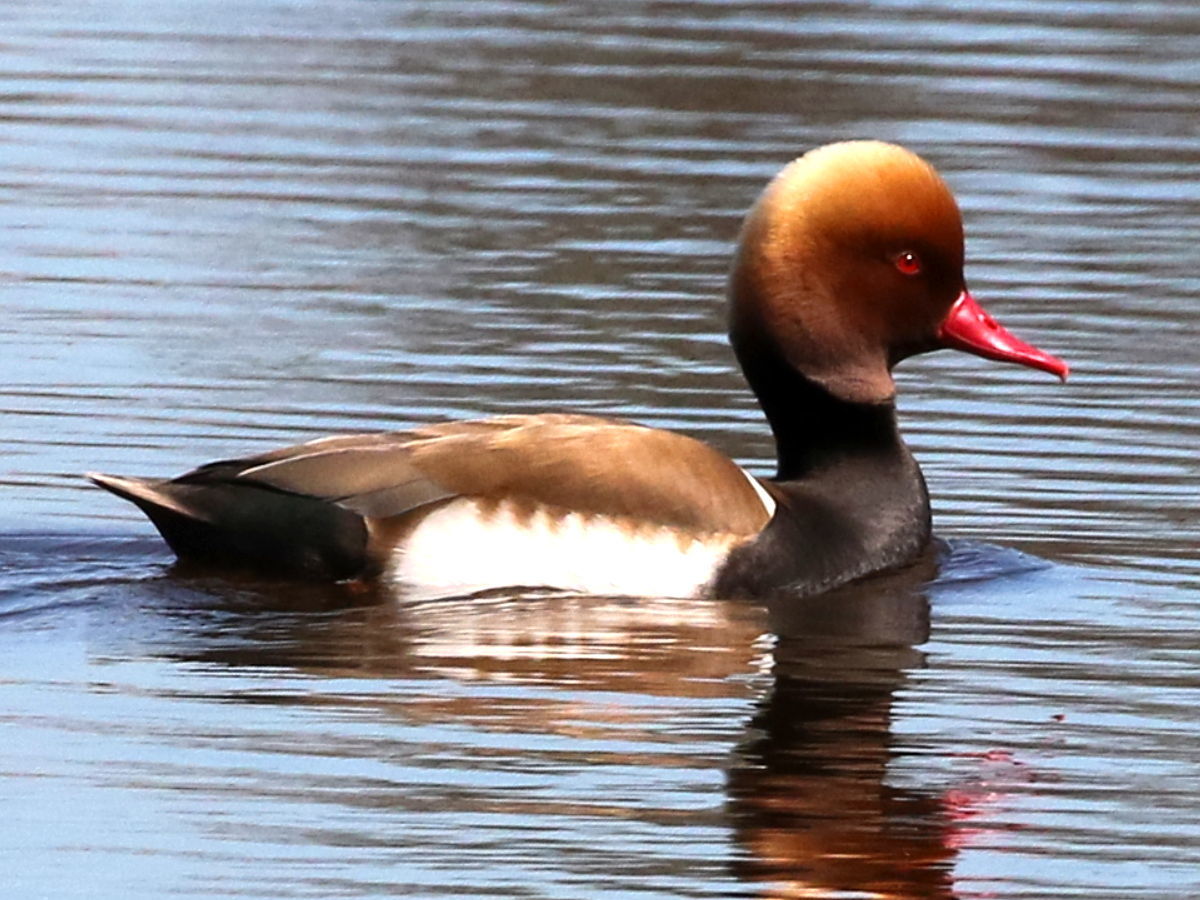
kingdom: Animalia
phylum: Chordata
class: Aves
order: Anseriformes
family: Anatidae
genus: Netta
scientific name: Netta rufina
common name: Red-crested pochard
